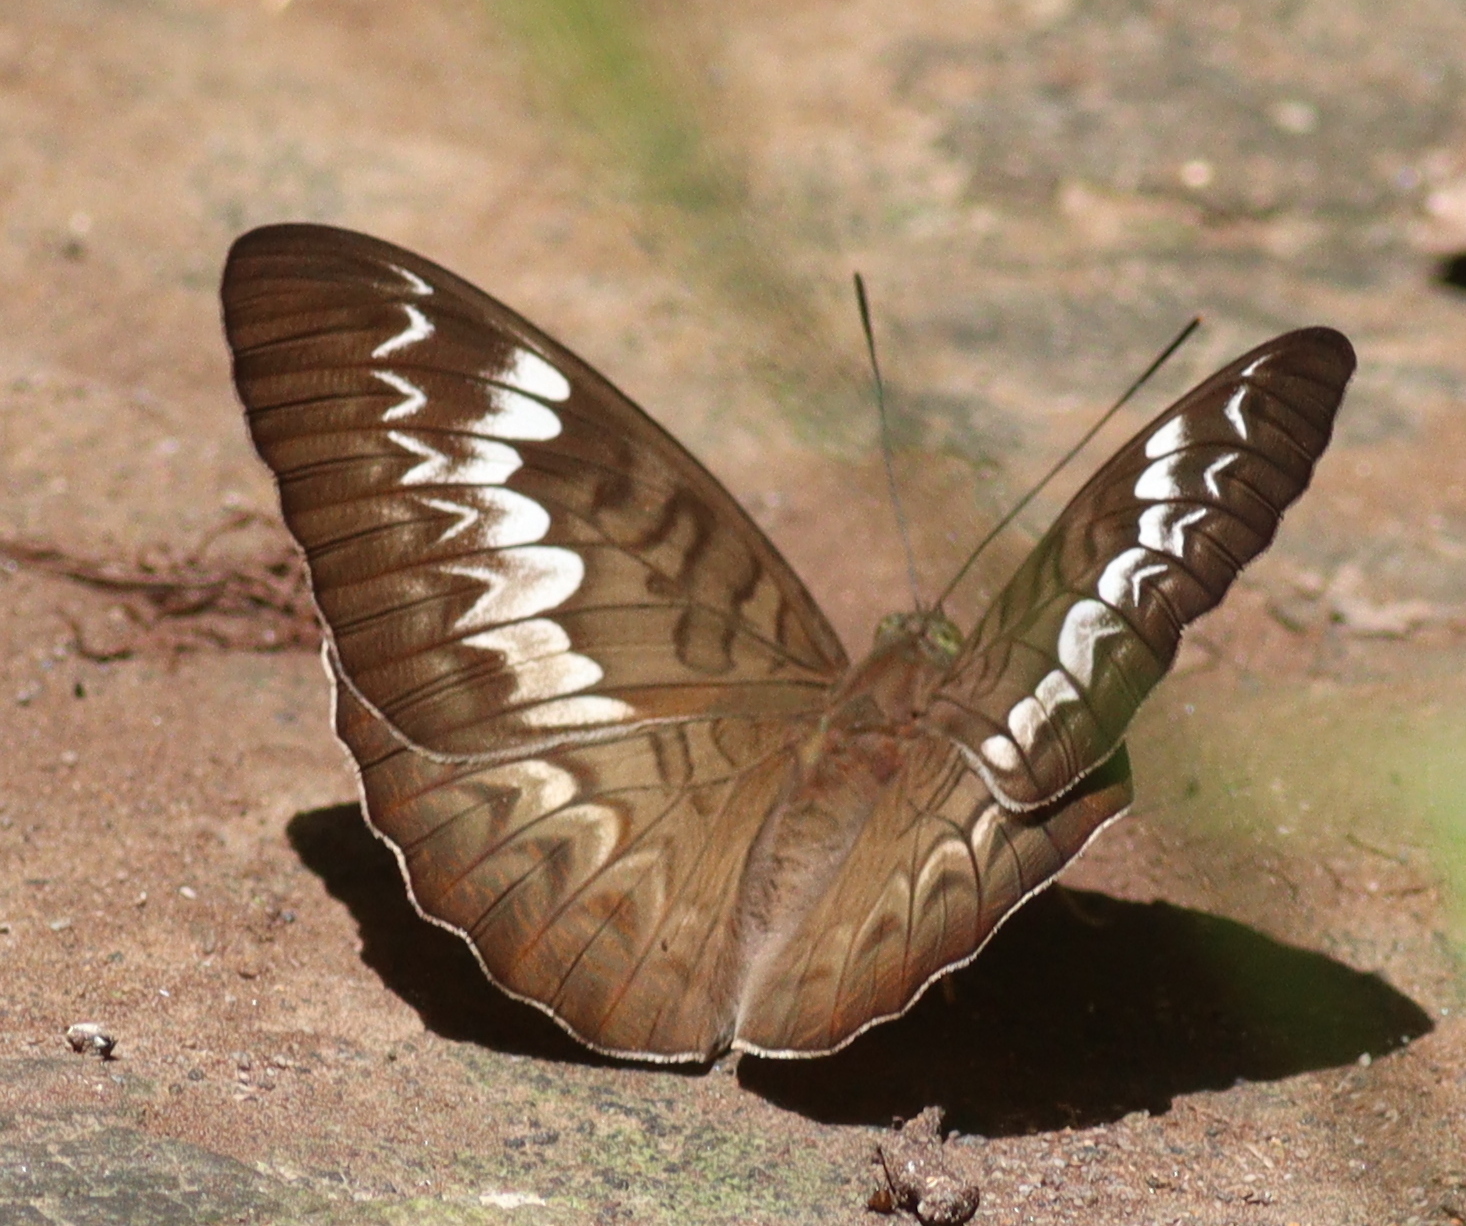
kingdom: Animalia
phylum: Arthropoda
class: Insecta
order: Lepidoptera
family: Nymphalidae
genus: Tanaecia
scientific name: Tanaecia palguna
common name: Long-lined viscount
